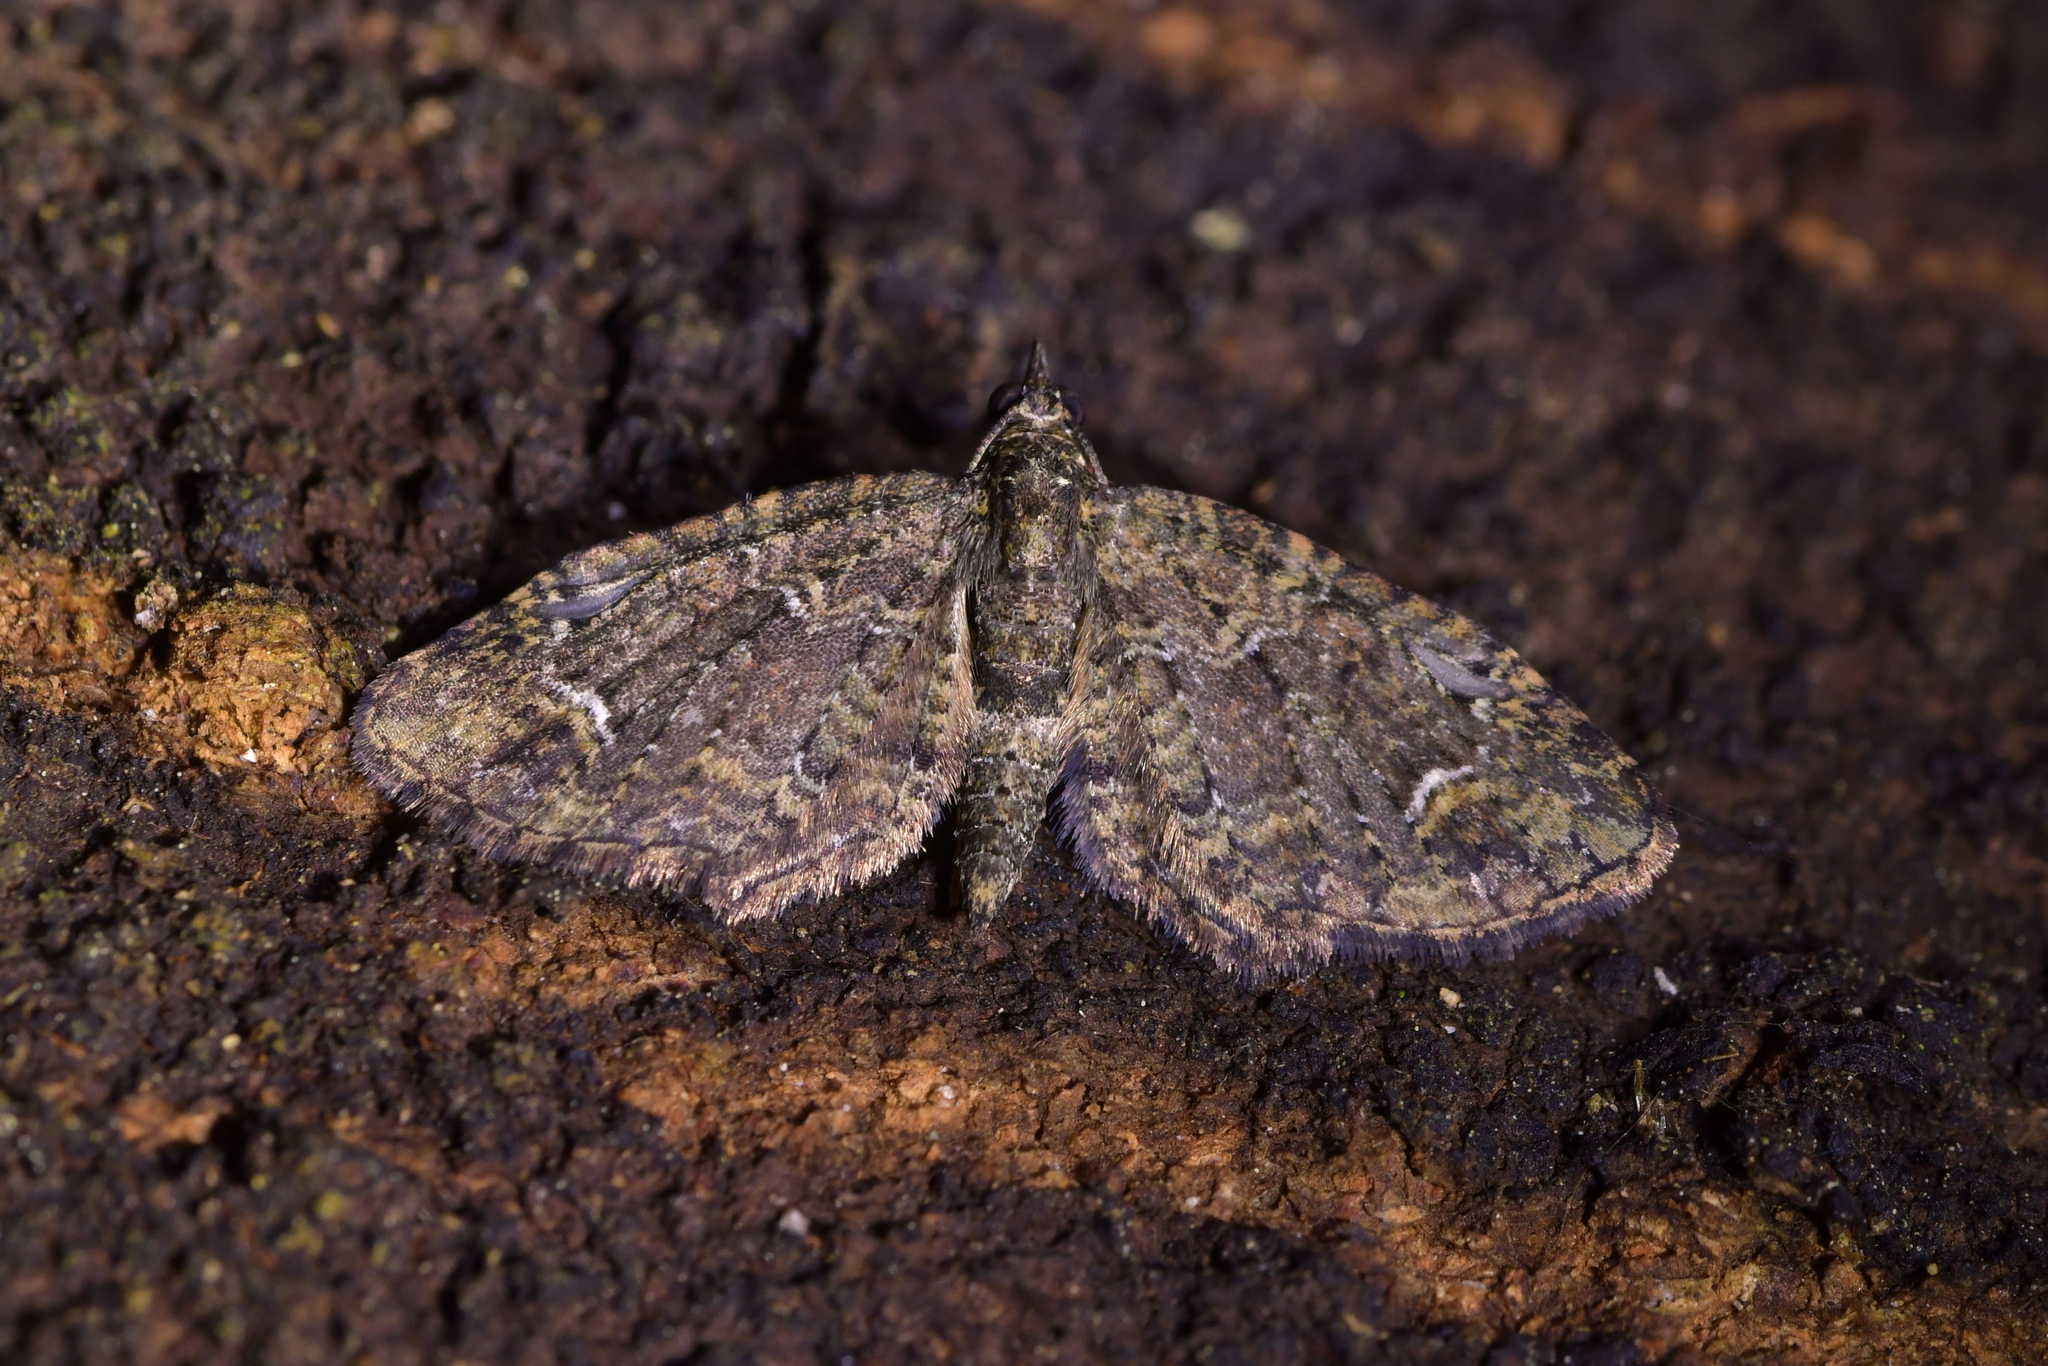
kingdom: Animalia
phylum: Arthropoda
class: Insecta
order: Lepidoptera
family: Geometridae
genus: Pasiphilodes
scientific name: Pasiphilodes testulata
